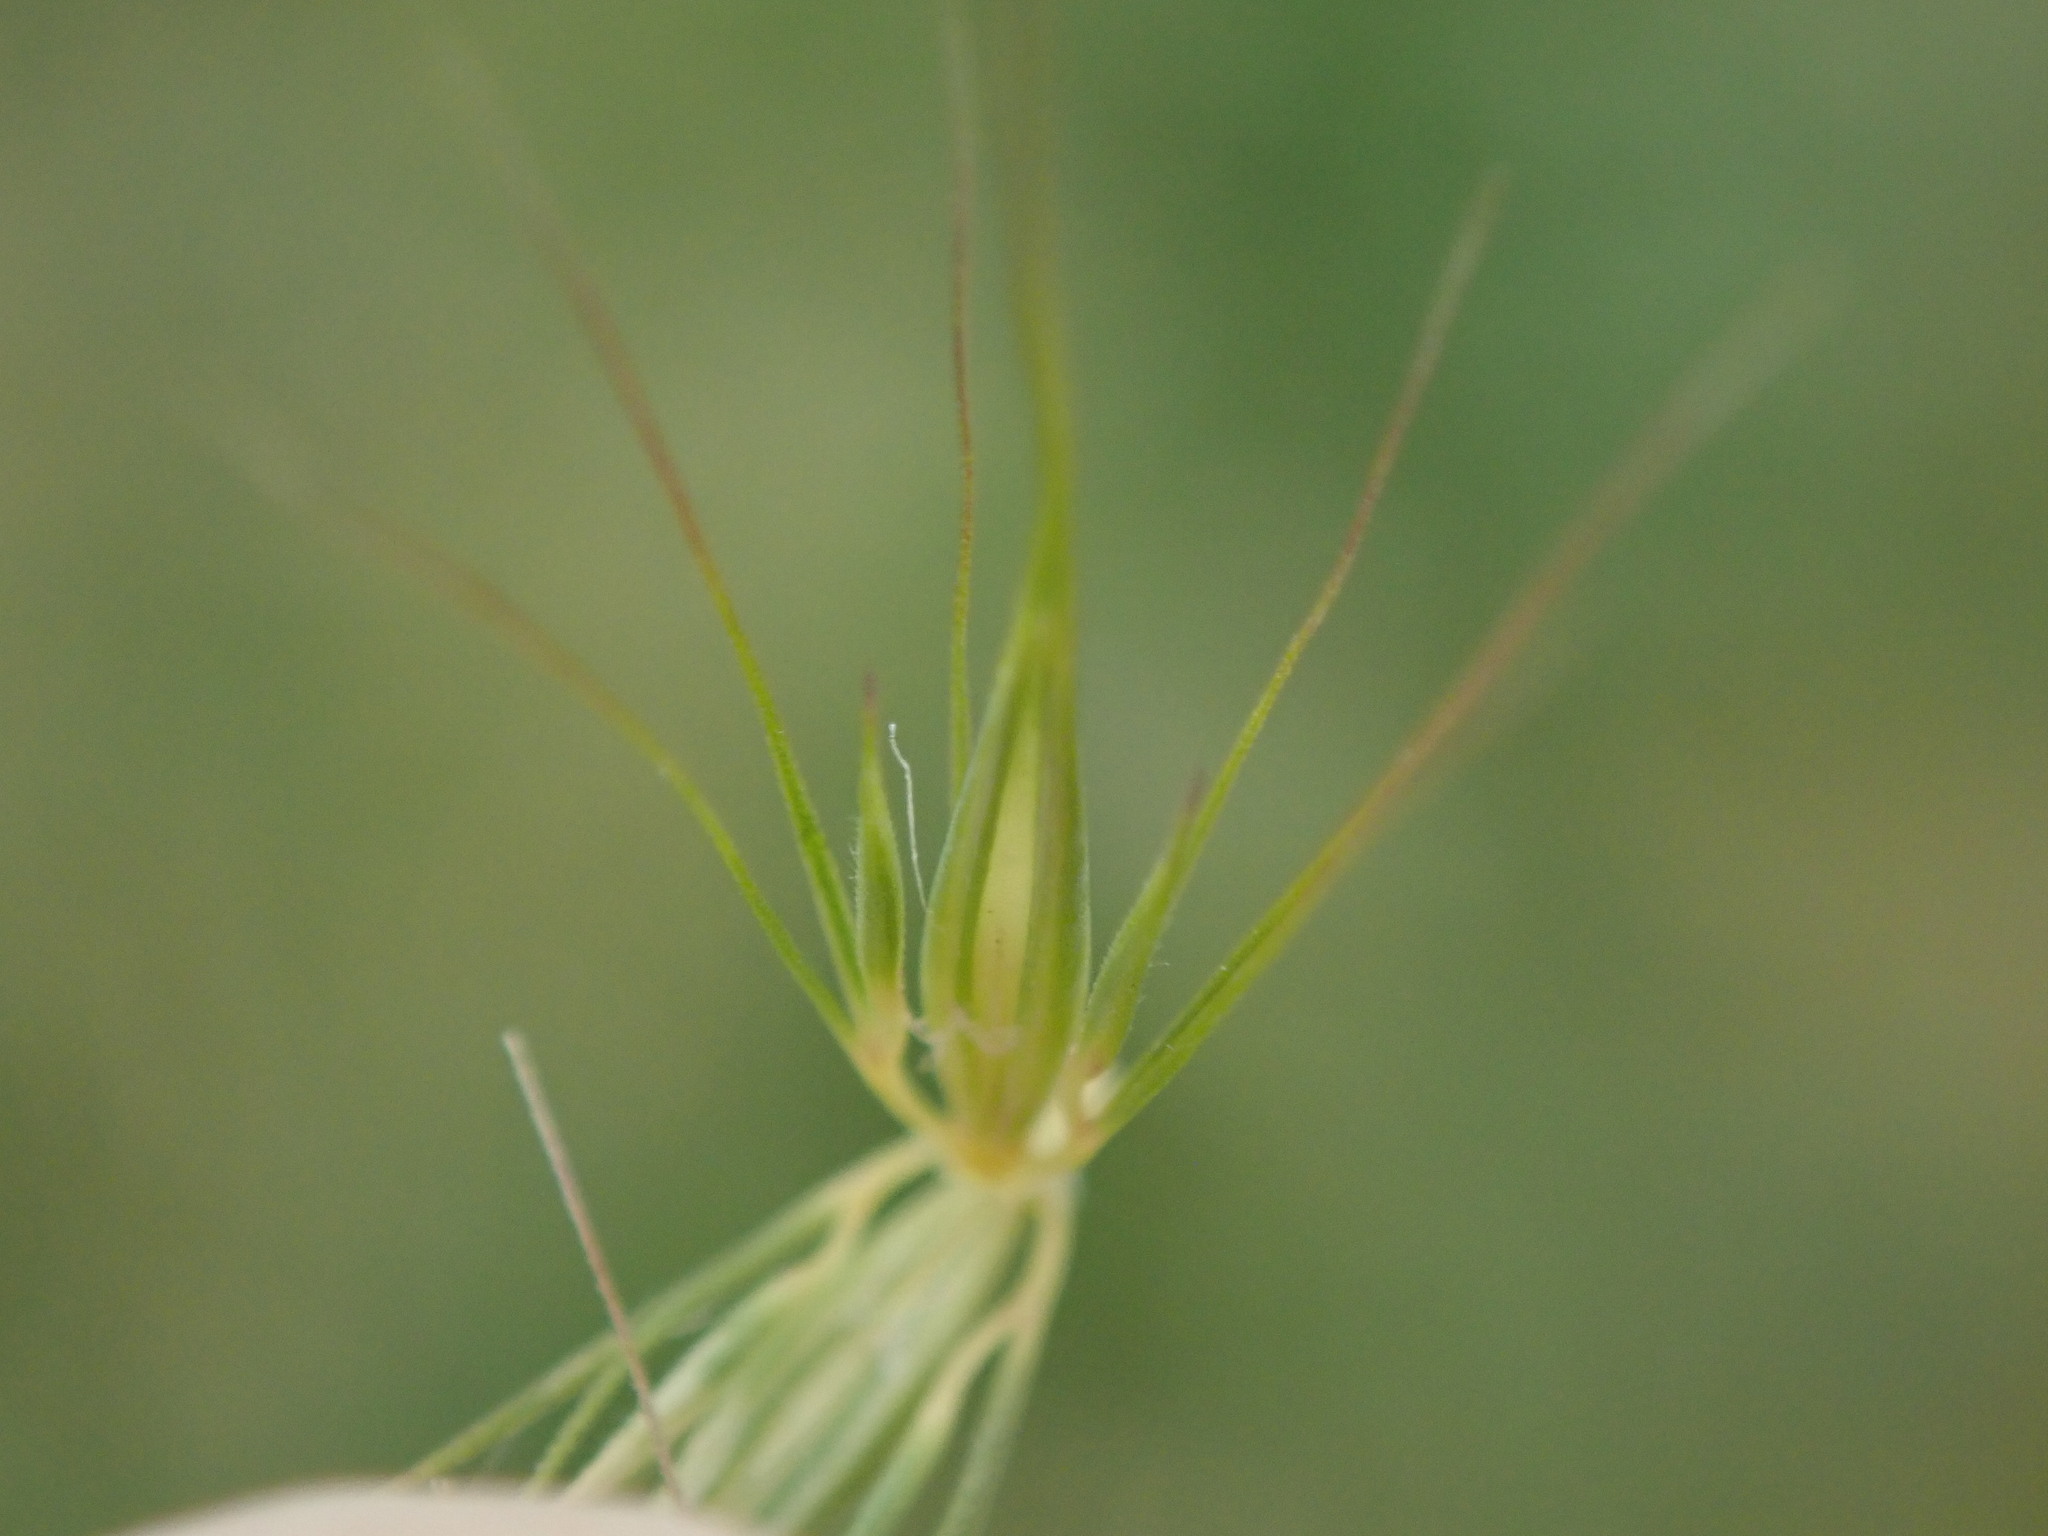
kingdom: Plantae
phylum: Tracheophyta
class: Liliopsida
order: Poales
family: Poaceae
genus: Hordeum
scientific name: Hordeum secalinum
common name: Meadow barley
